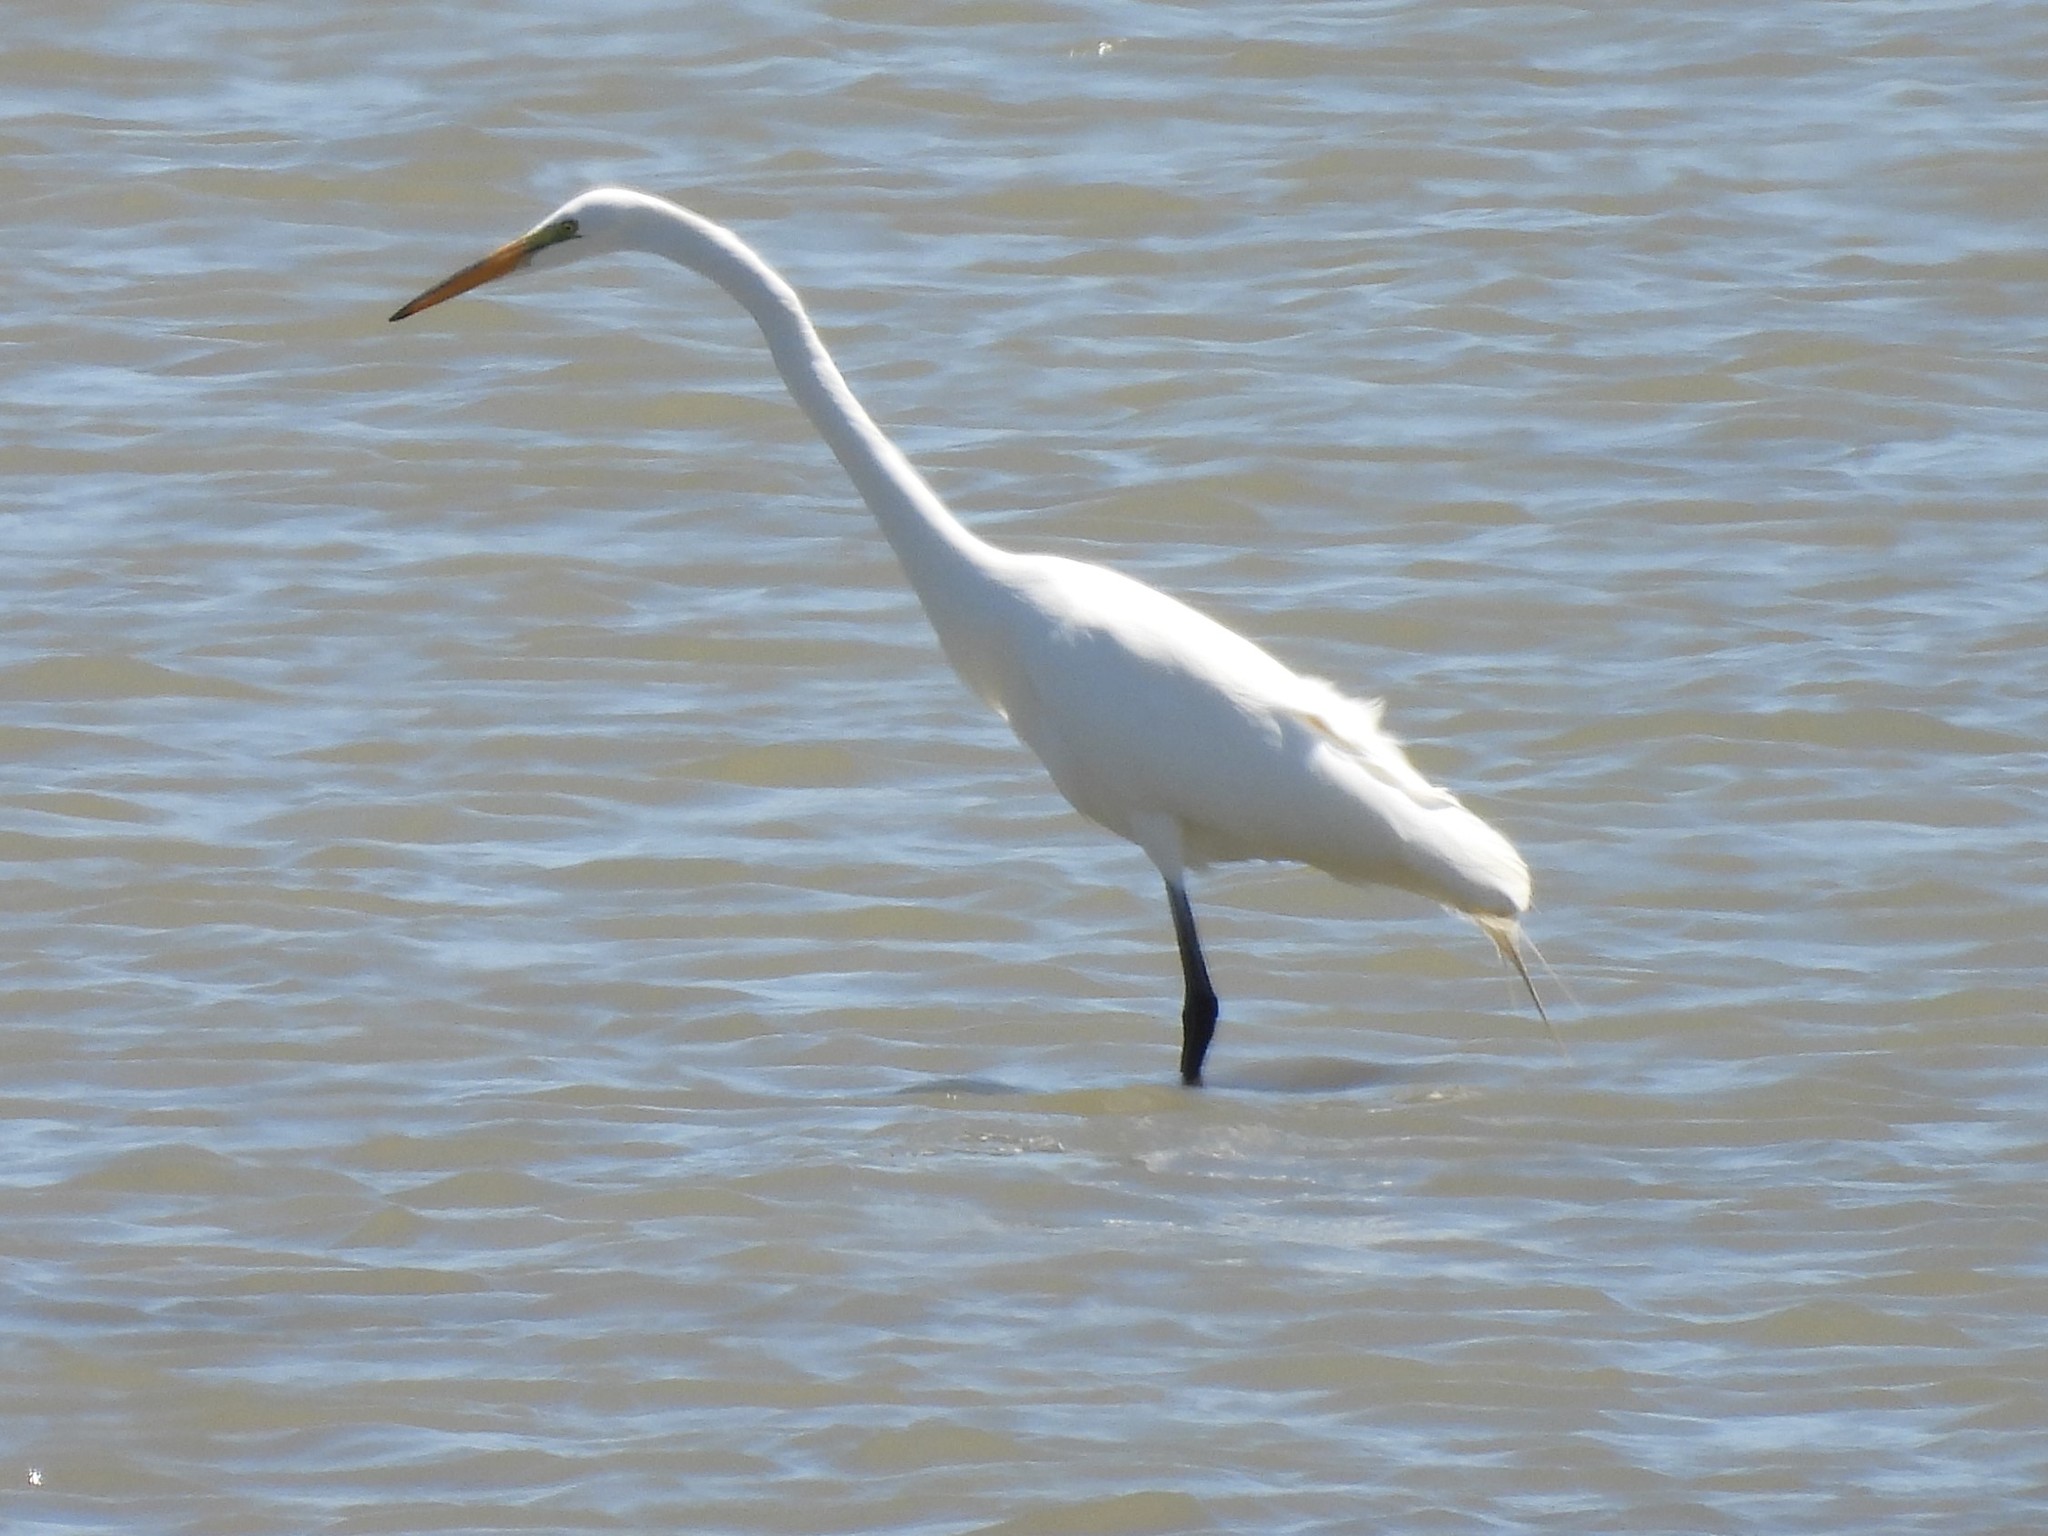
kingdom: Animalia
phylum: Chordata
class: Aves
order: Pelecaniformes
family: Ardeidae
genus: Ardea
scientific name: Ardea alba
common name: Great egret
